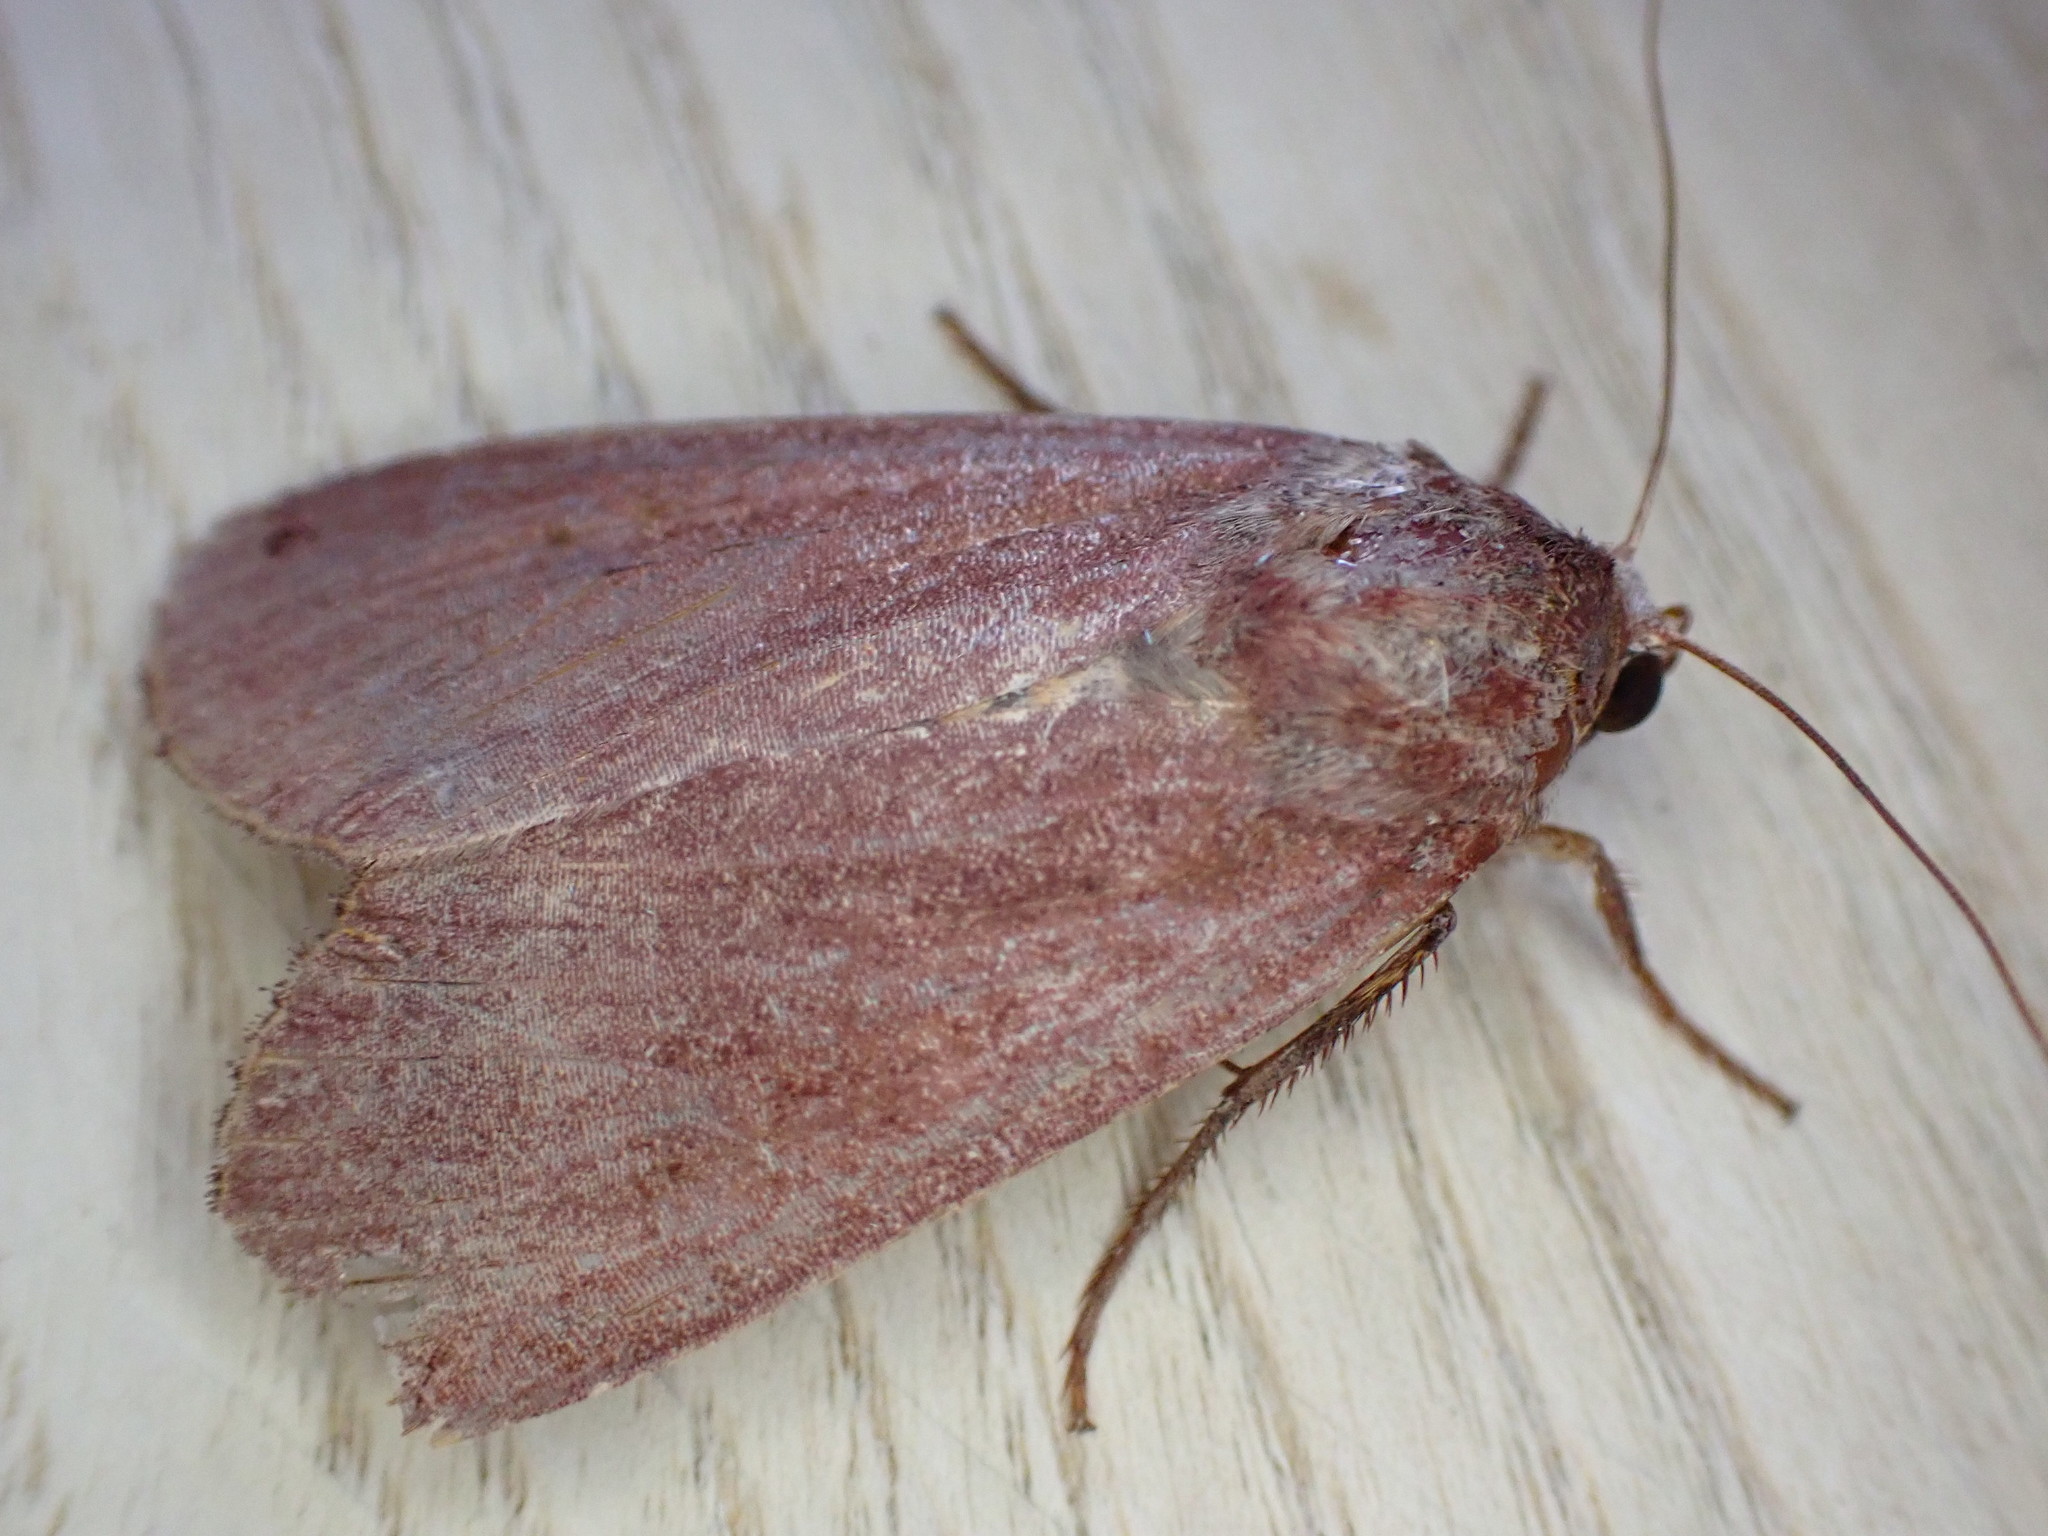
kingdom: Animalia
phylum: Arthropoda
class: Insecta
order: Lepidoptera
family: Noctuidae
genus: Noctua
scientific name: Noctua pronuba
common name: Large yellow underwing
